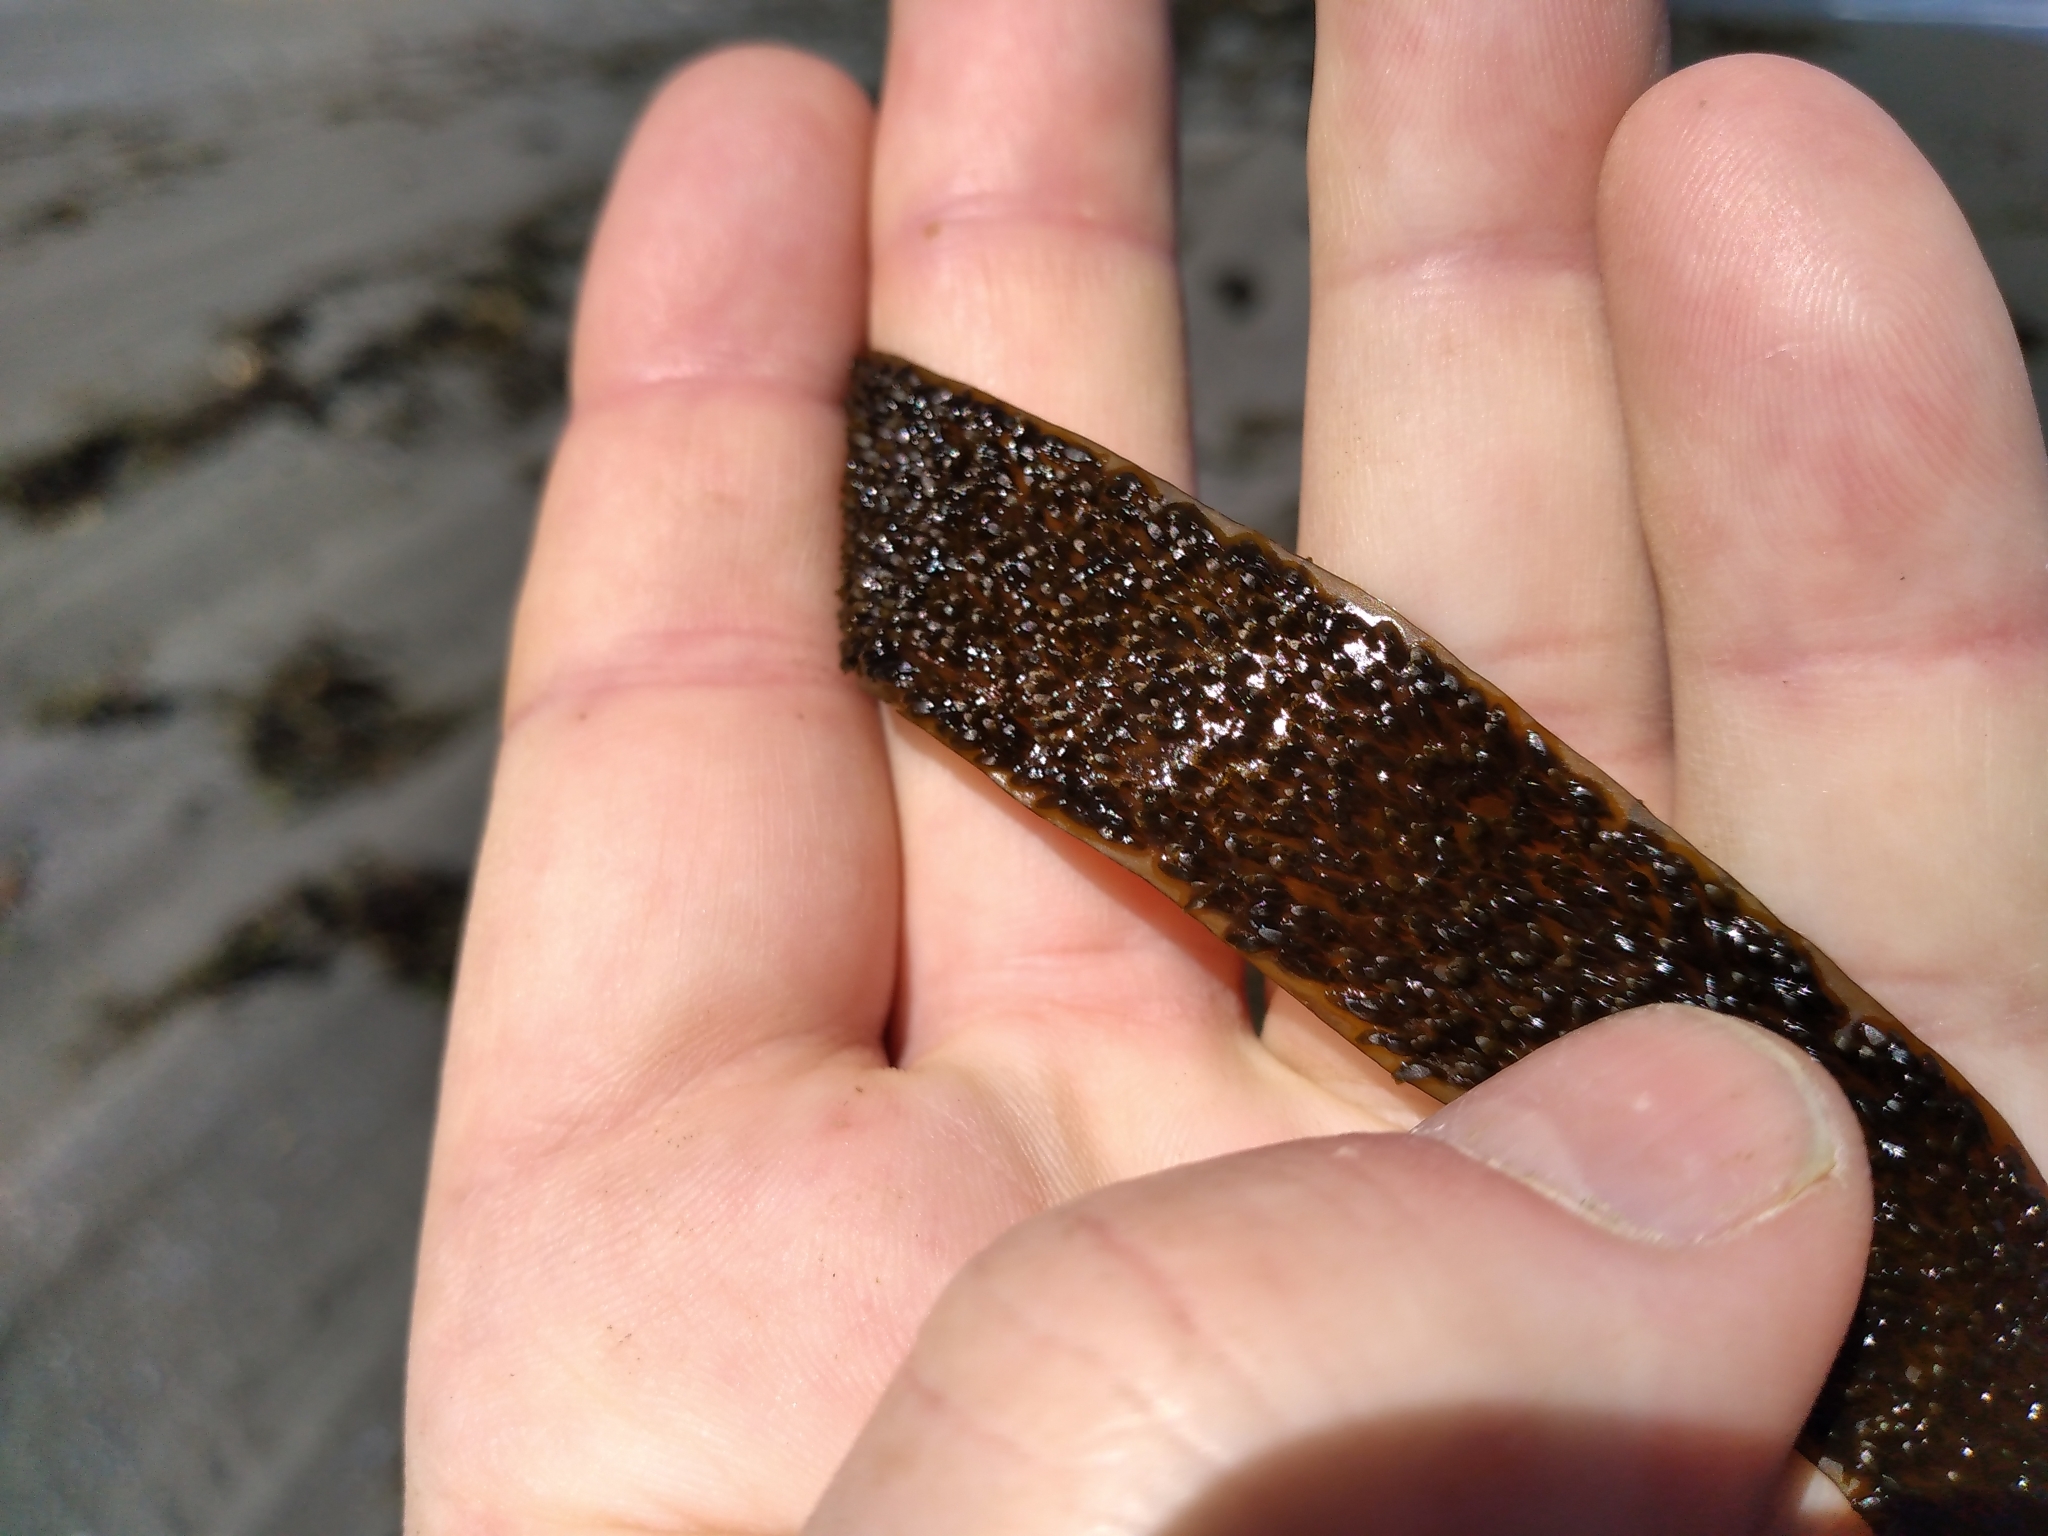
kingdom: Chromista
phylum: Ochrophyta
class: Phaeophyceae
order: Dictyotales
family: Dictyotaceae
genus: Dictyota
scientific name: Dictyota kunthii
